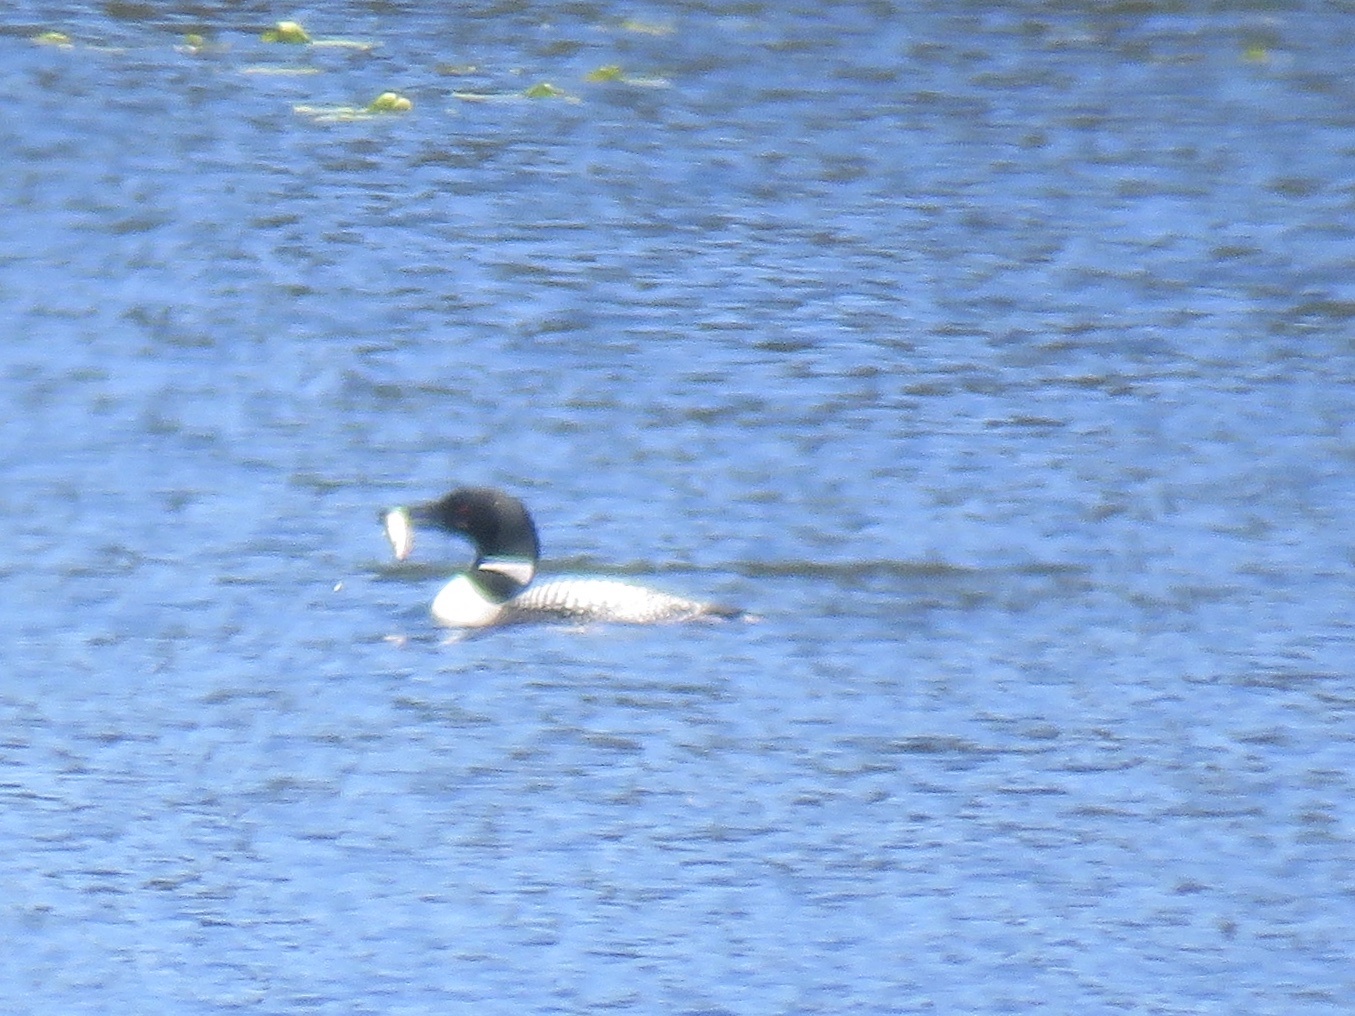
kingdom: Animalia
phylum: Chordata
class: Aves
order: Gaviiformes
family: Gaviidae
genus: Gavia
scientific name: Gavia immer
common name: Common loon
